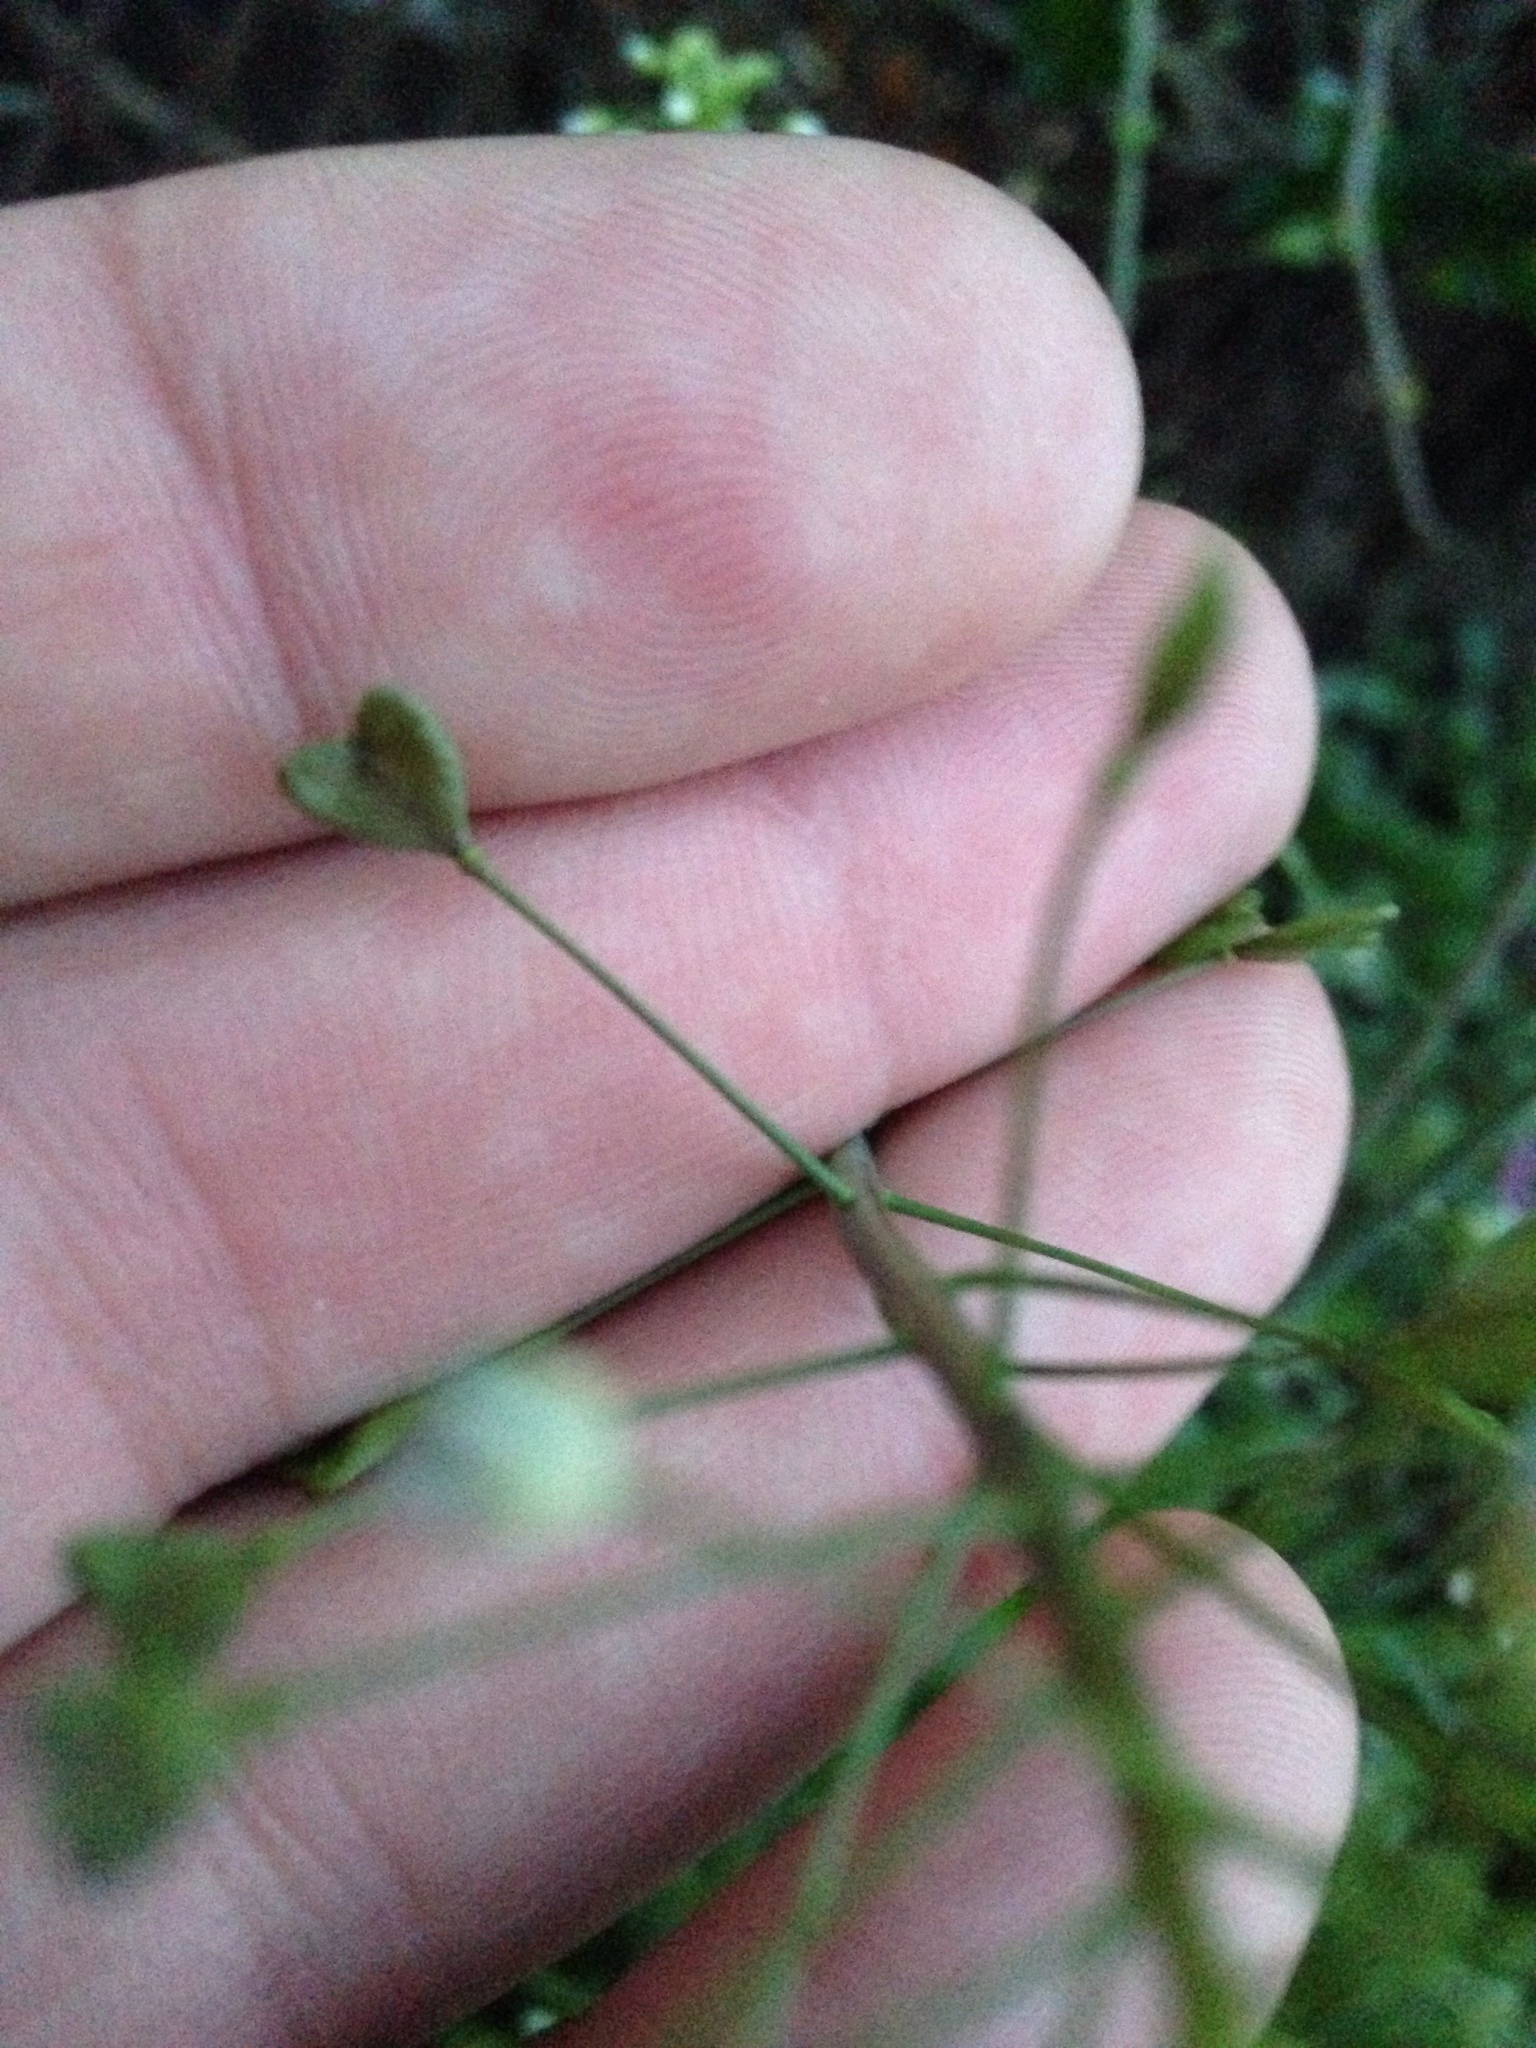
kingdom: Plantae
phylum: Tracheophyta
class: Magnoliopsida
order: Brassicales
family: Brassicaceae
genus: Capsella
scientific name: Capsella bursa-pastoris
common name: Shepherd's purse
